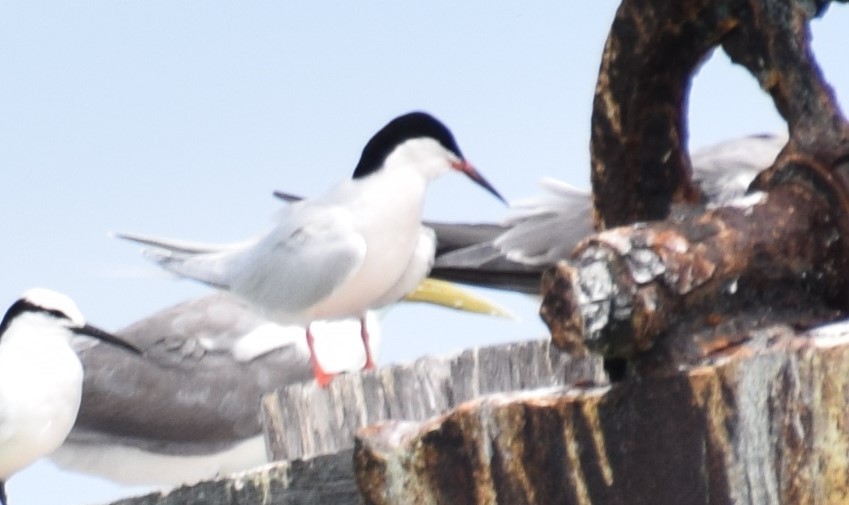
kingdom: Animalia
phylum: Chordata
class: Aves
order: Charadriiformes
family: Laridae
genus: Sterna
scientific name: Sterna dougallii
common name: Roseate tern
